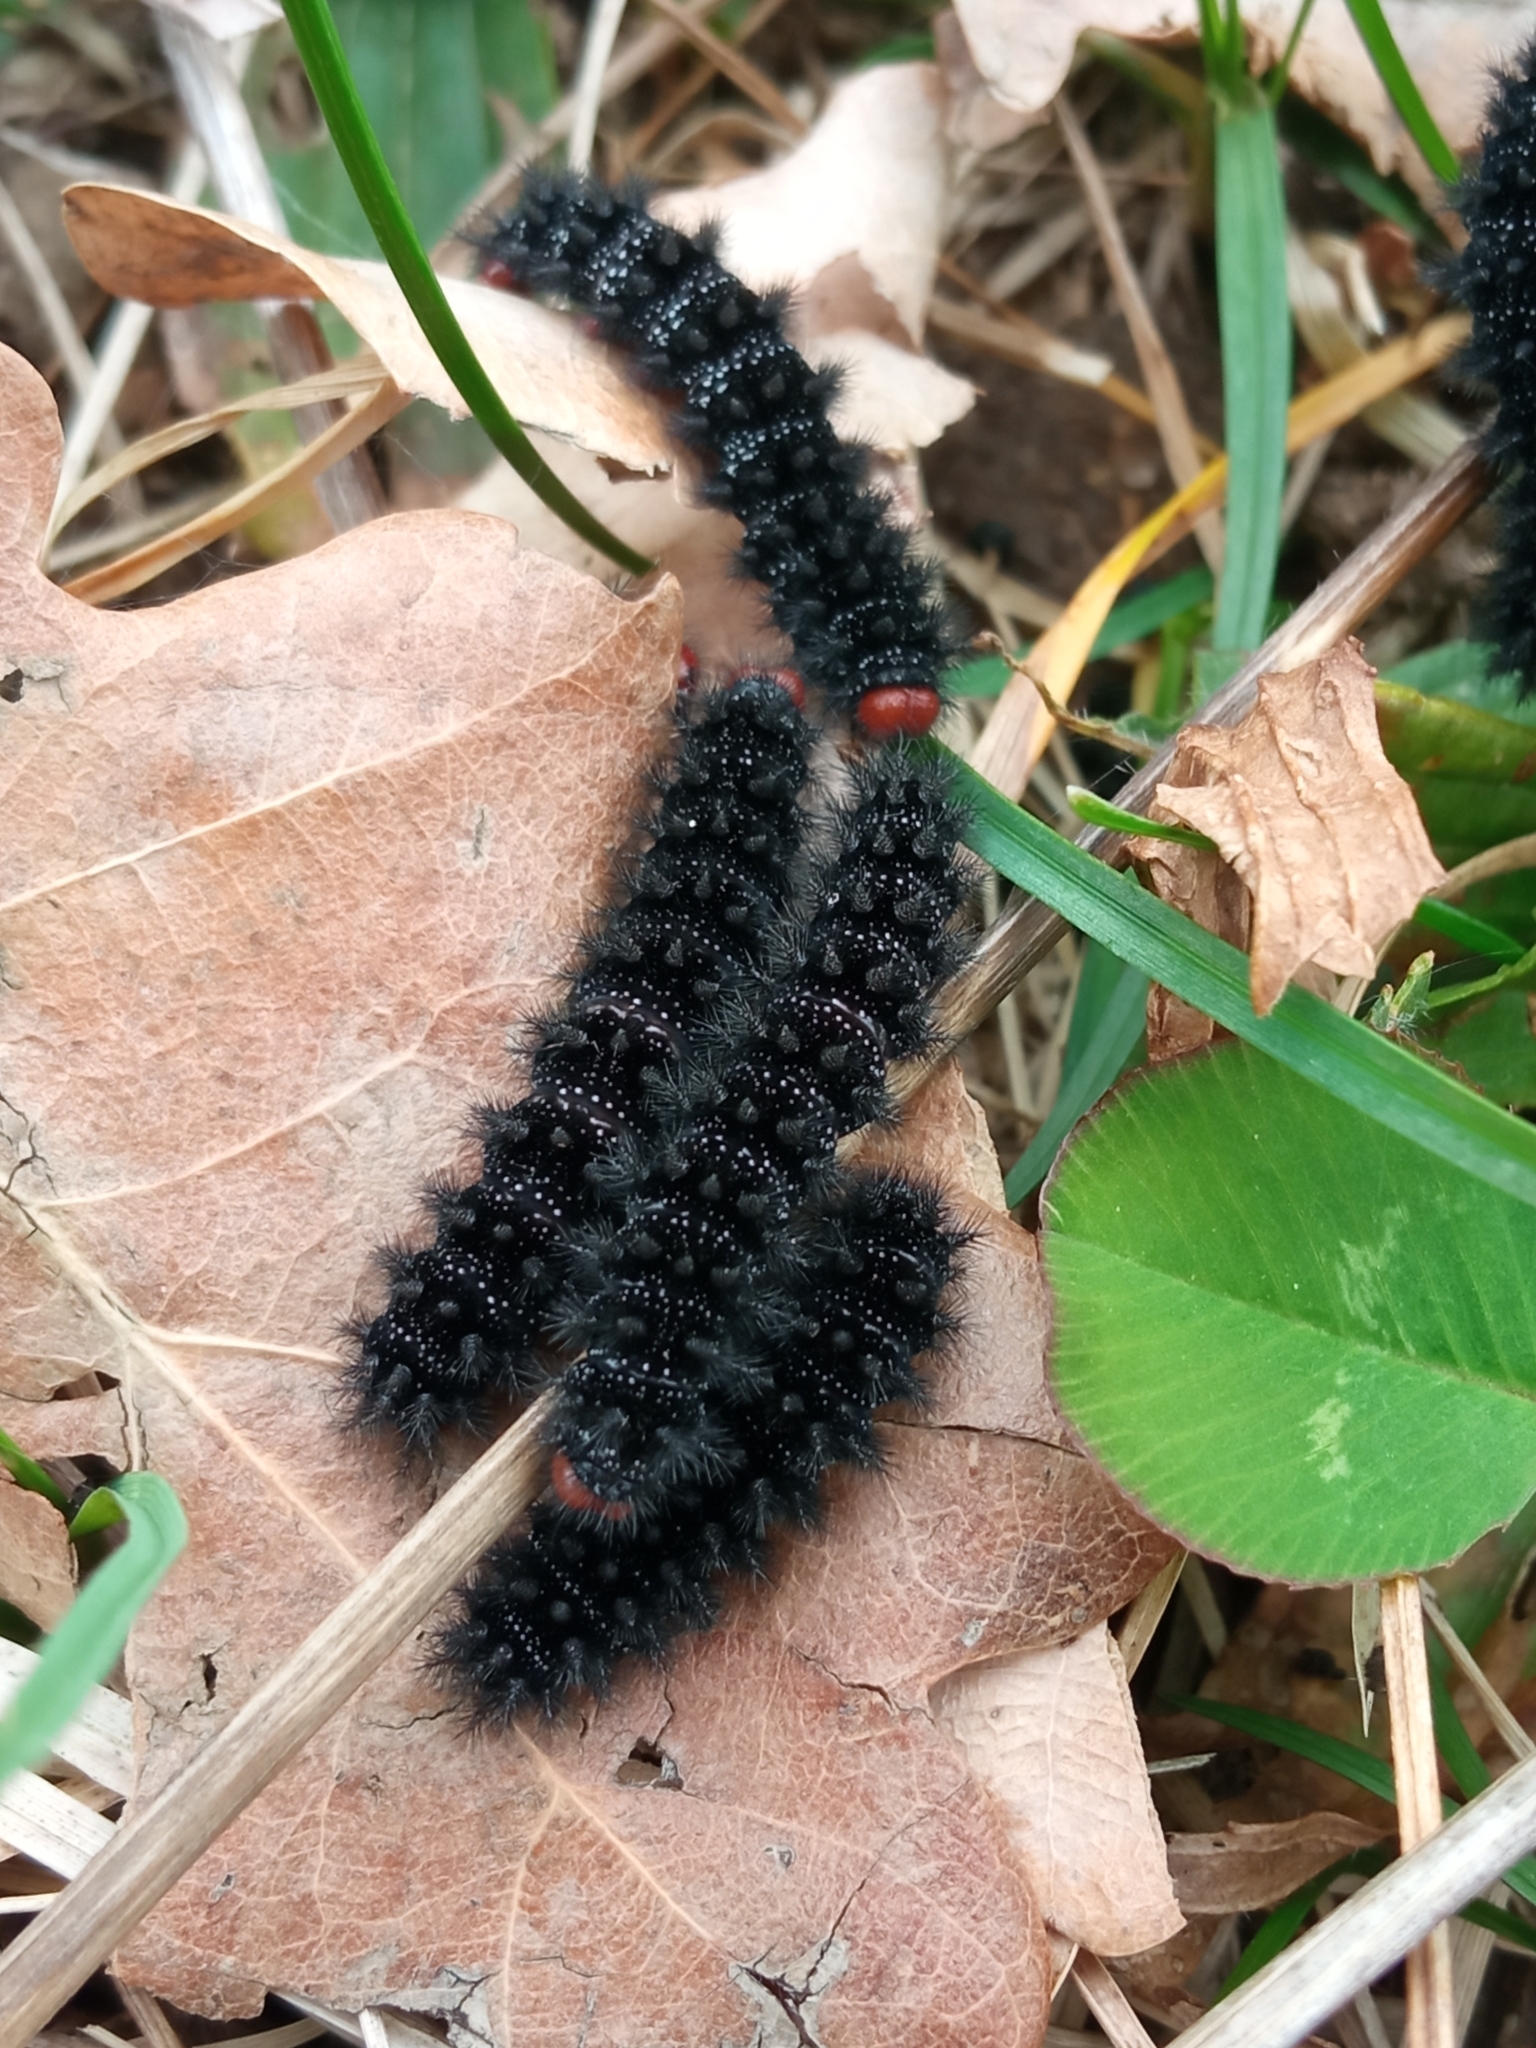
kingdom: Animalia
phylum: Arthropoda
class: Insecta
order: Lepidoptera
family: Nymphalidae
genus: Melitaea
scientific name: Melitaea cinxia
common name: Glanville fritillary
